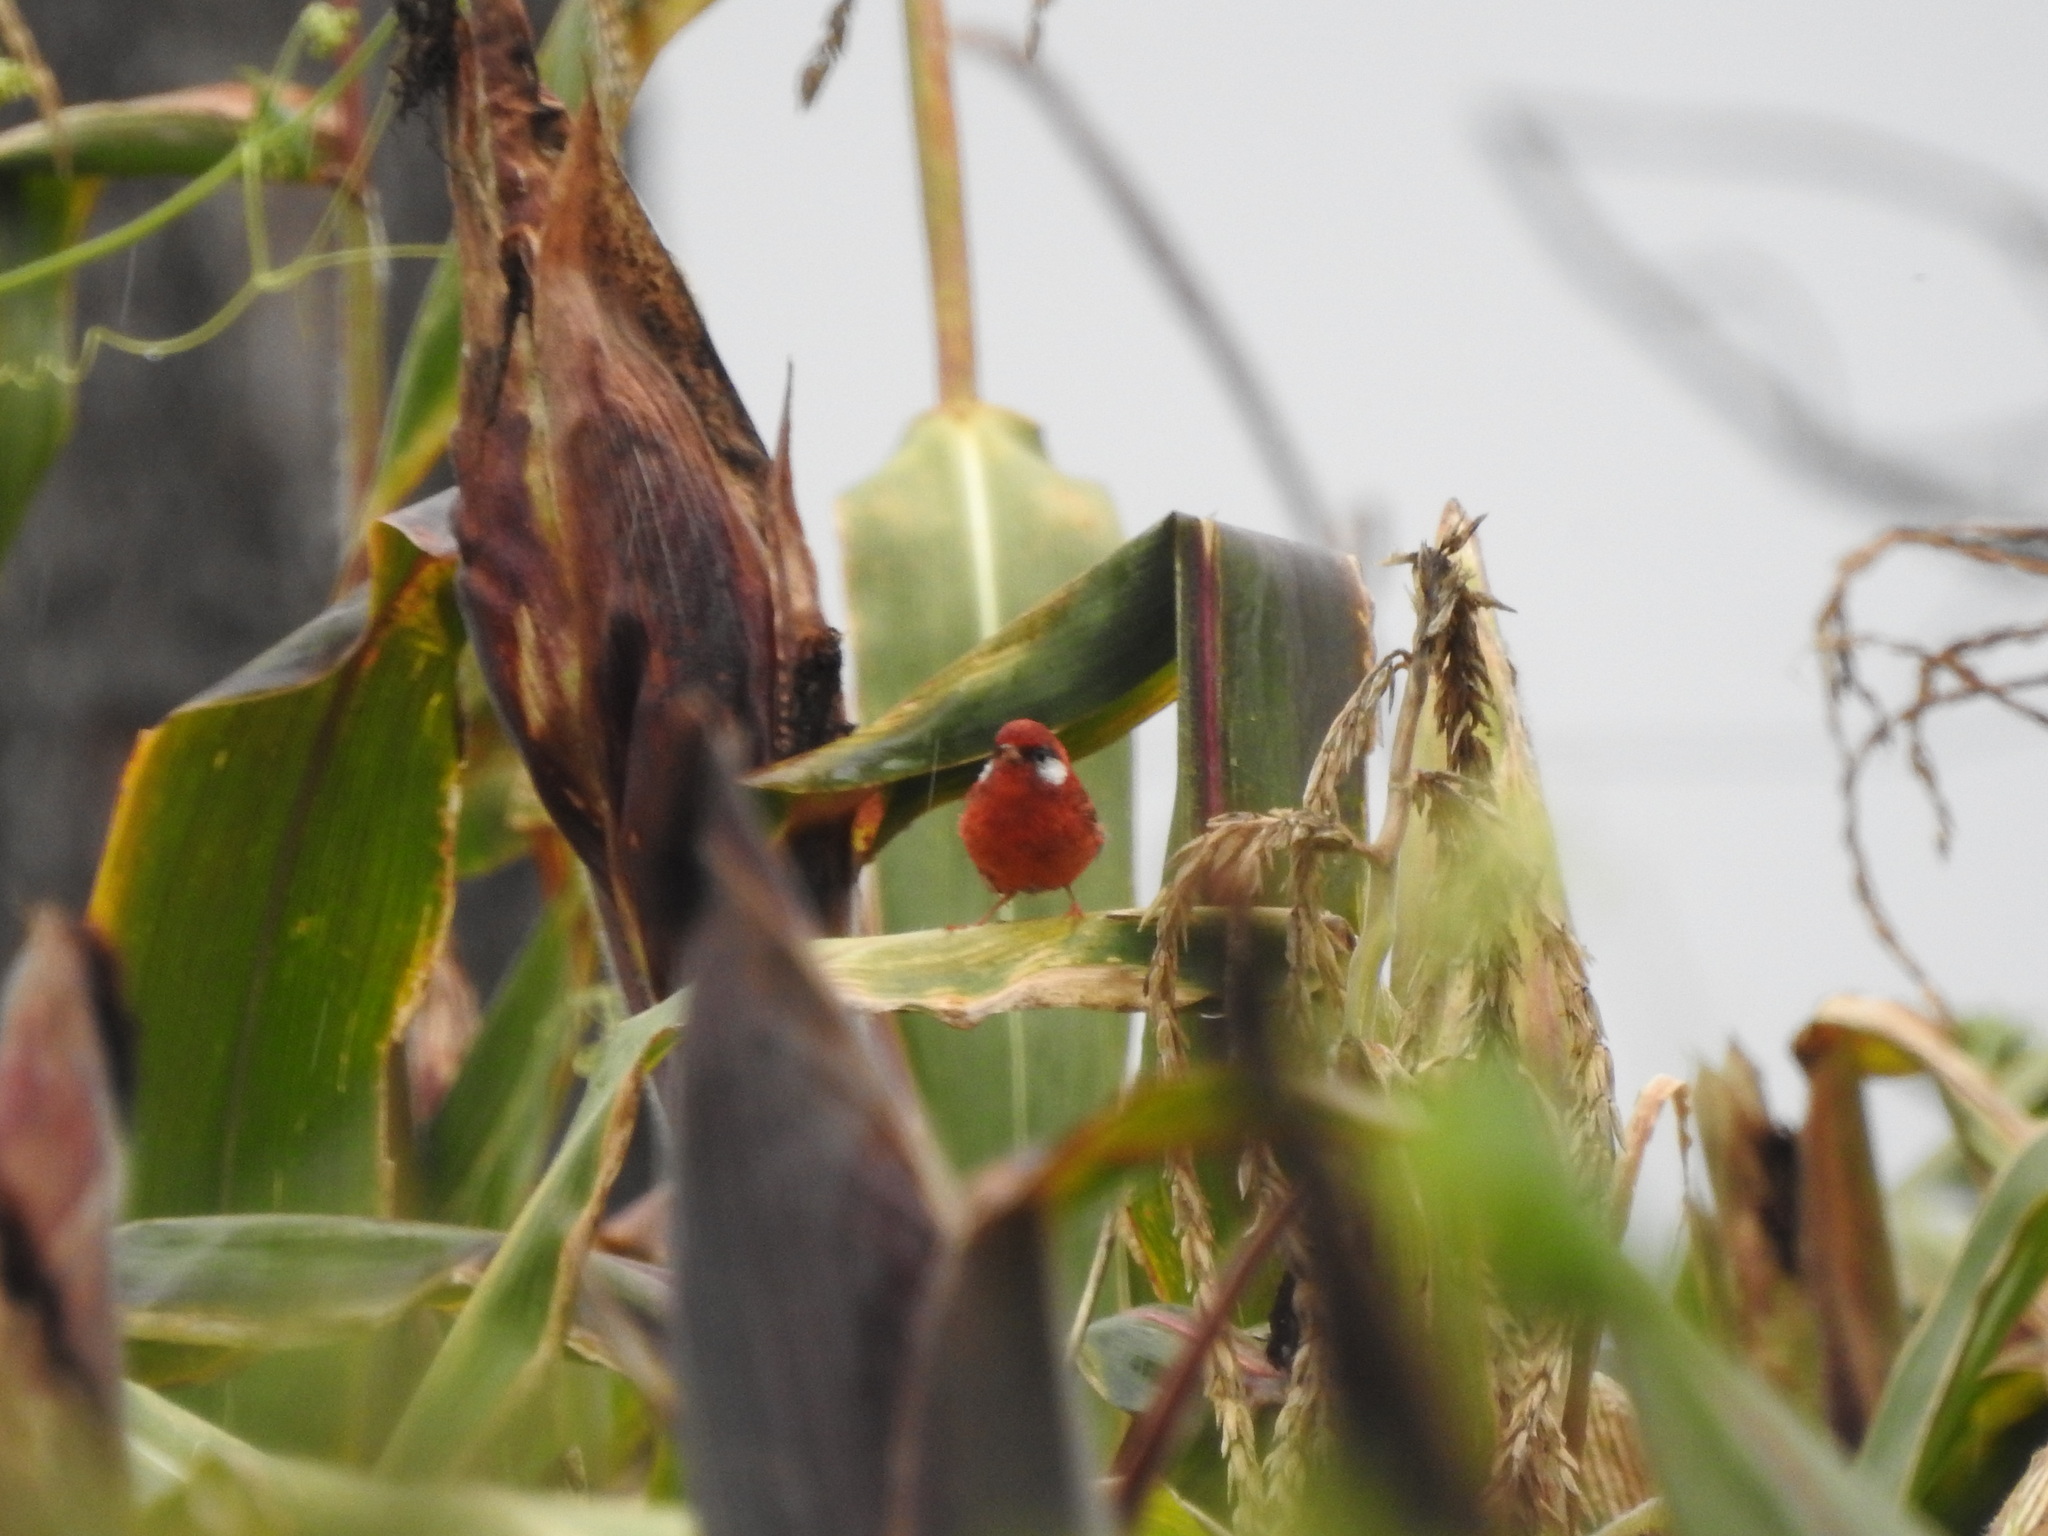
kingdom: Animalia
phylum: Chordata
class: Aves
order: Passeriformes
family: Parulidae
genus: Cardellina
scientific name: Cardellina rubra
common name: Red warbler
